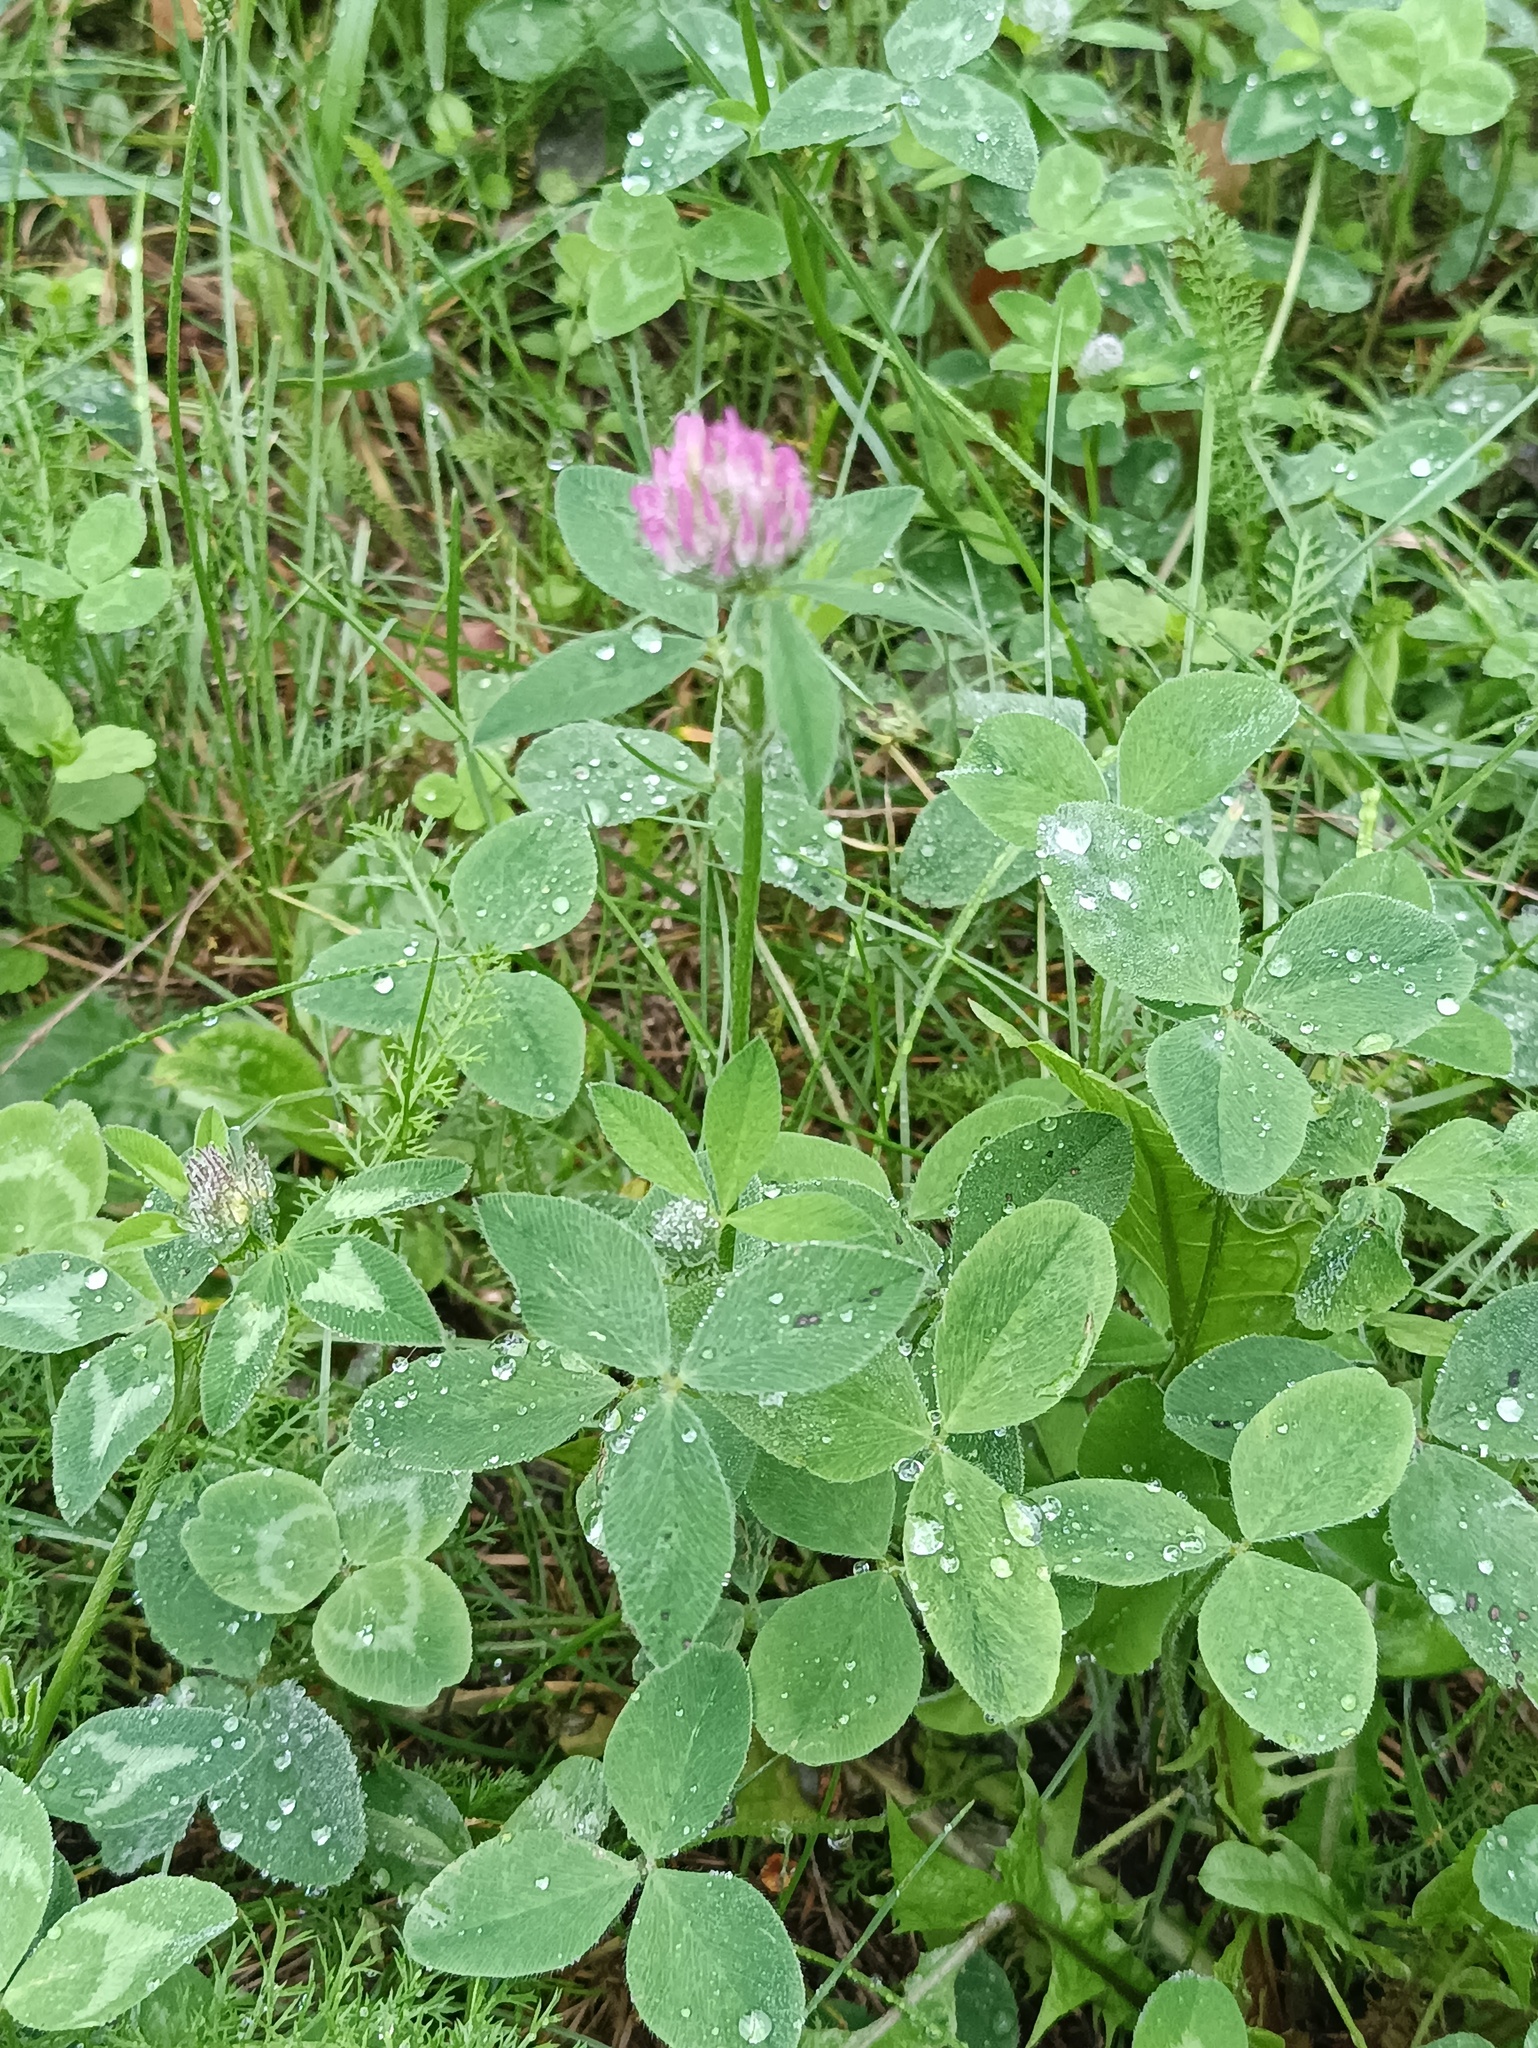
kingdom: Plantae
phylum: Tracheophyta
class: Magnoliopsida
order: Fabales
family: Fabaceae
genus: Trifolium
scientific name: Trifolium pratense
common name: Red clover
